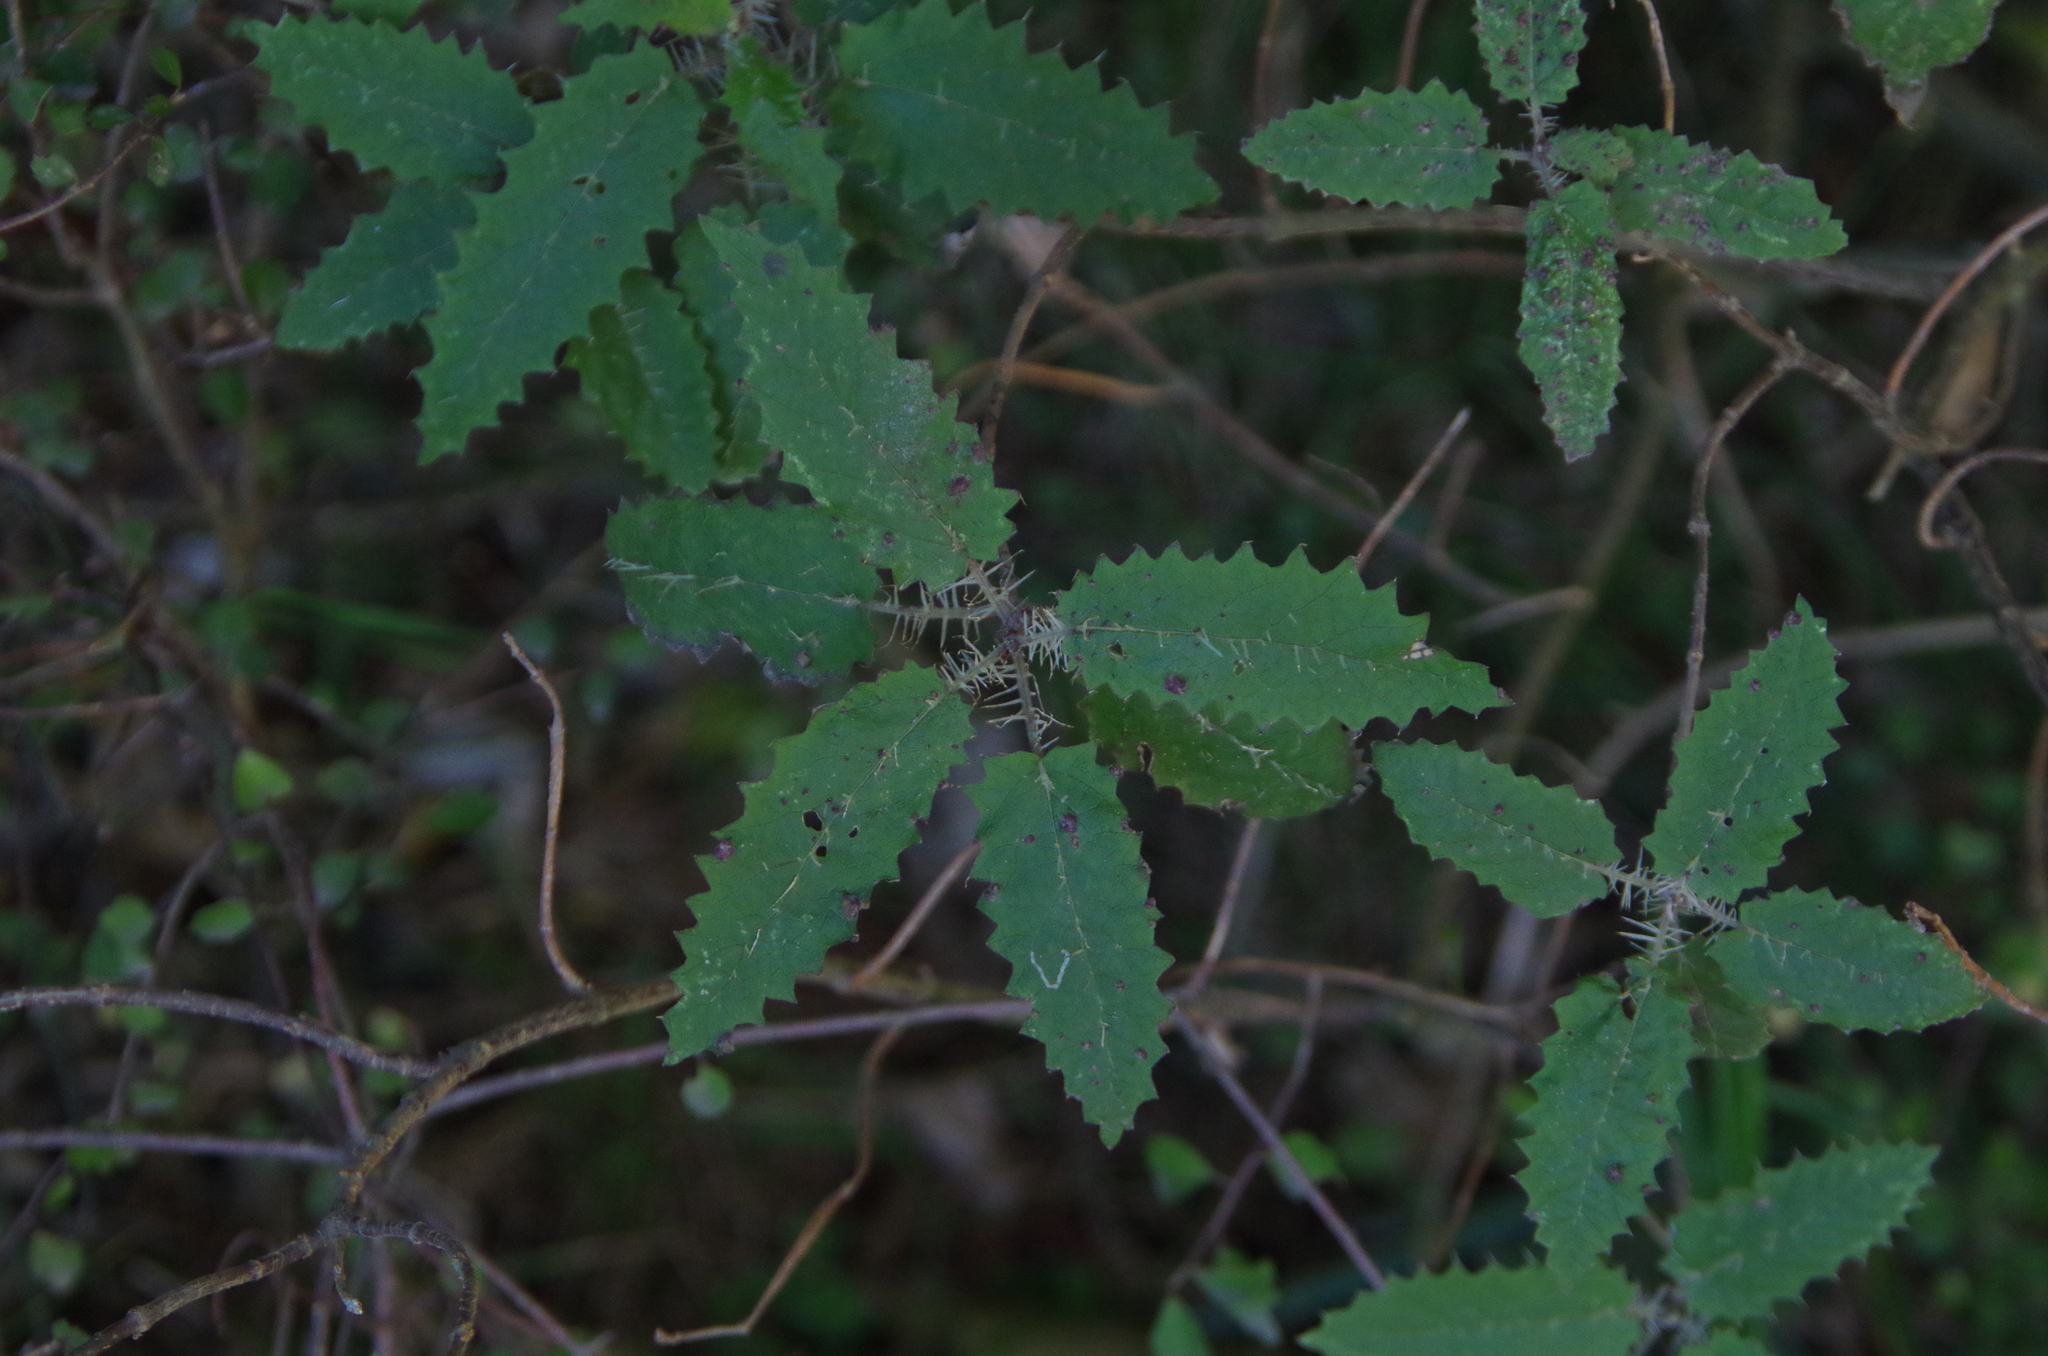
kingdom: Plantae
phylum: Tracheophyta
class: Magnoliopsida
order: Rosales
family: Urticaceae
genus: Urtica
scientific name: Urtica ferox
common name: Tree nettle
